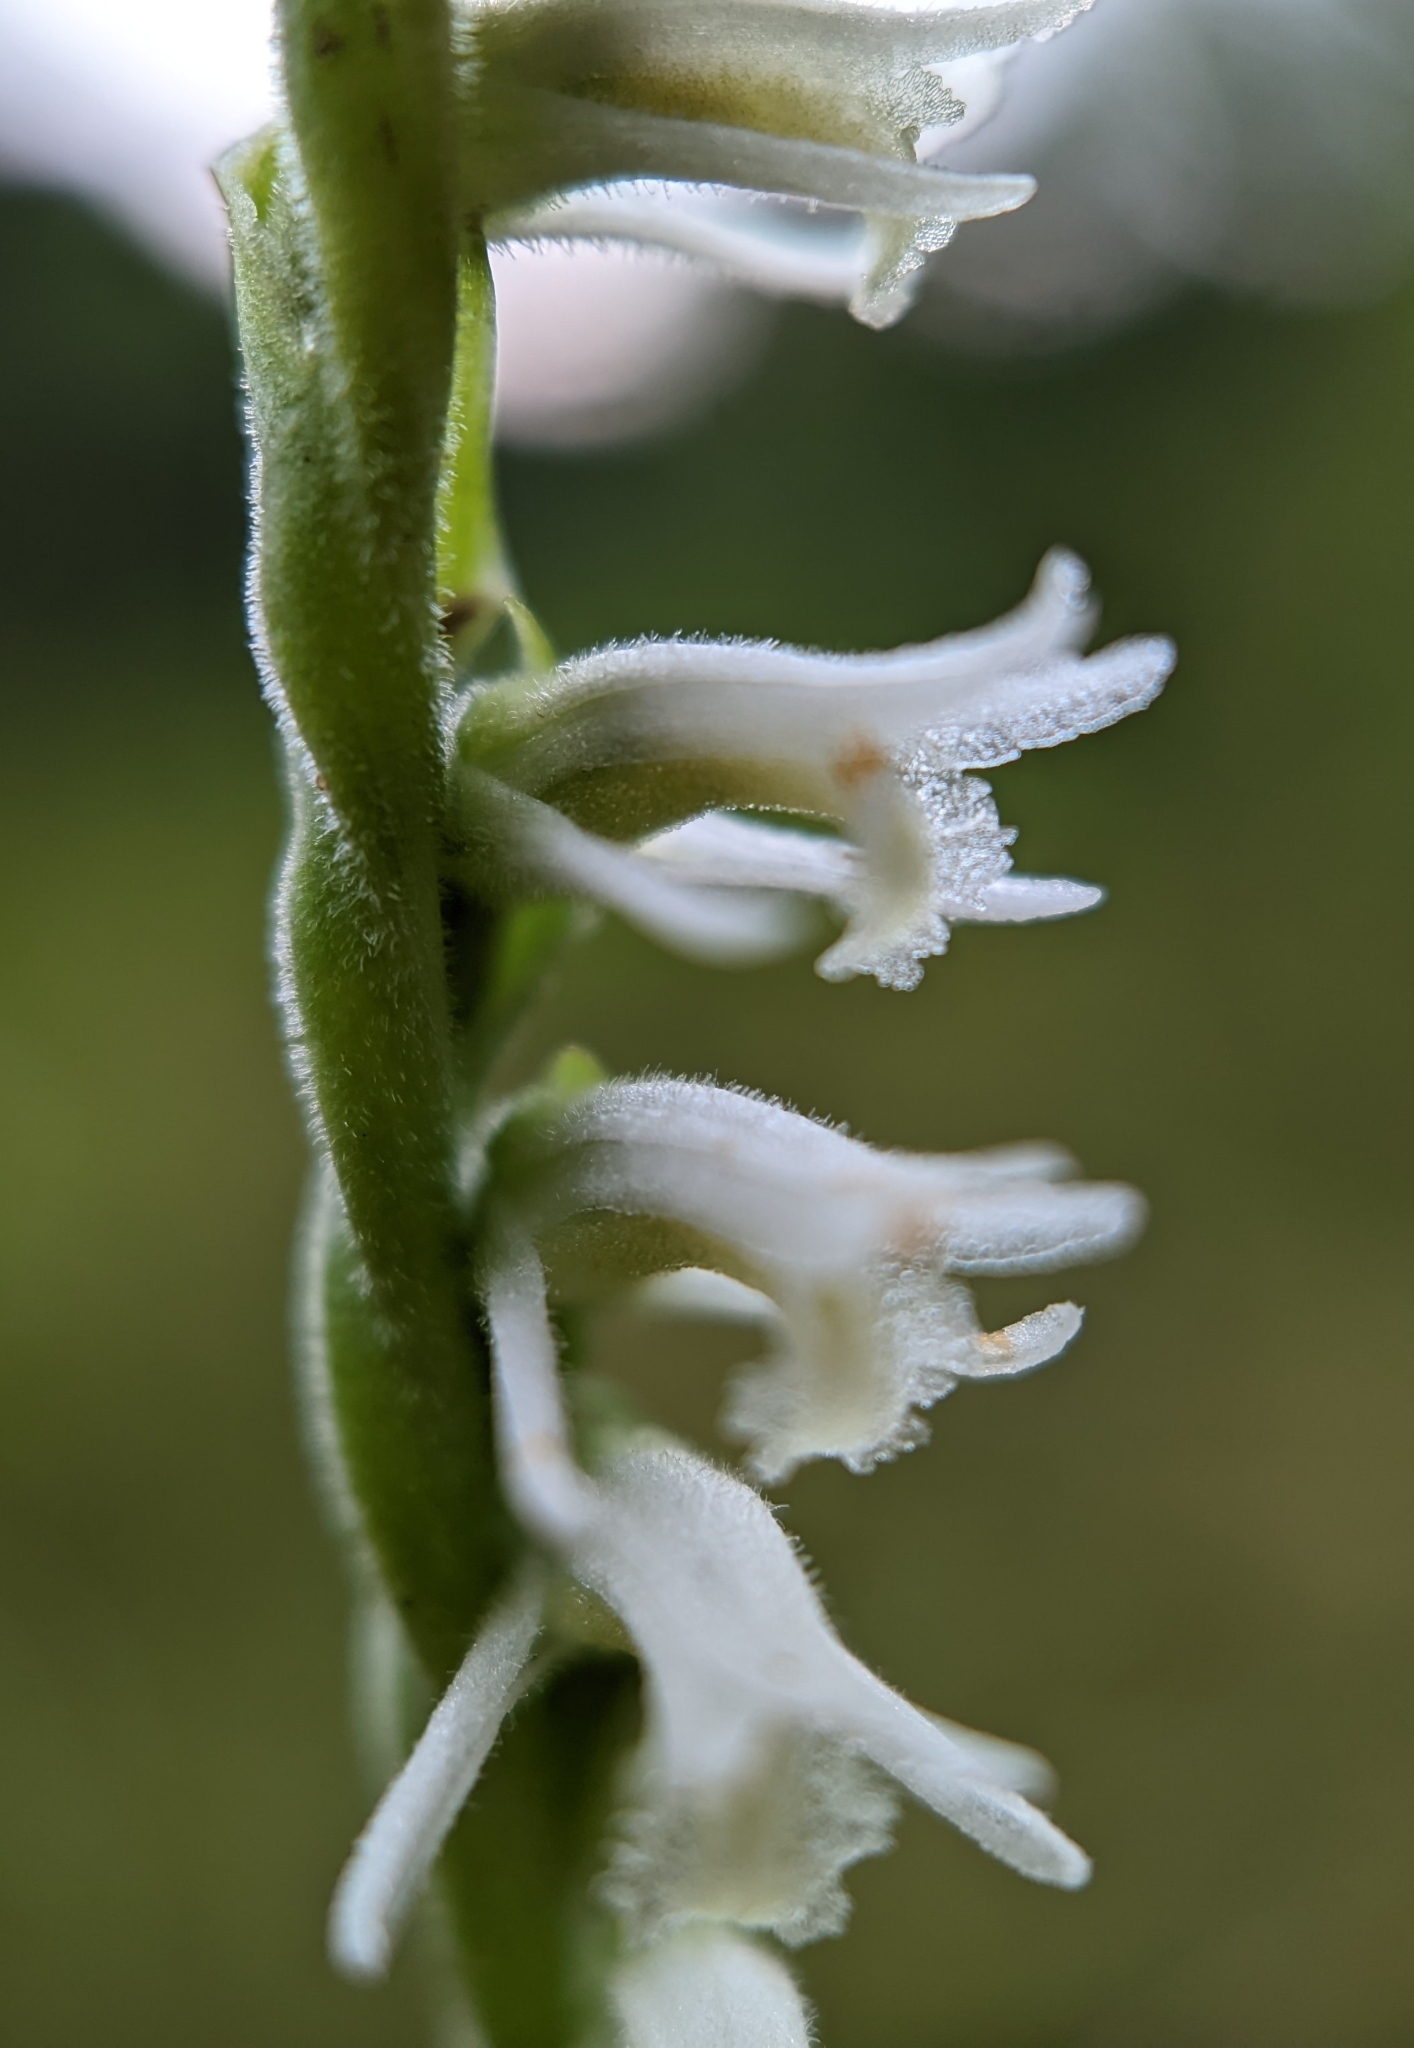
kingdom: Plantae
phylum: Tracheophyta
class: Liliopsida
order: Asparagales
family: Orchidaceae
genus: Spiranthes
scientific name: Spiranthes vernalis
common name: Spring ladies'-tresses
